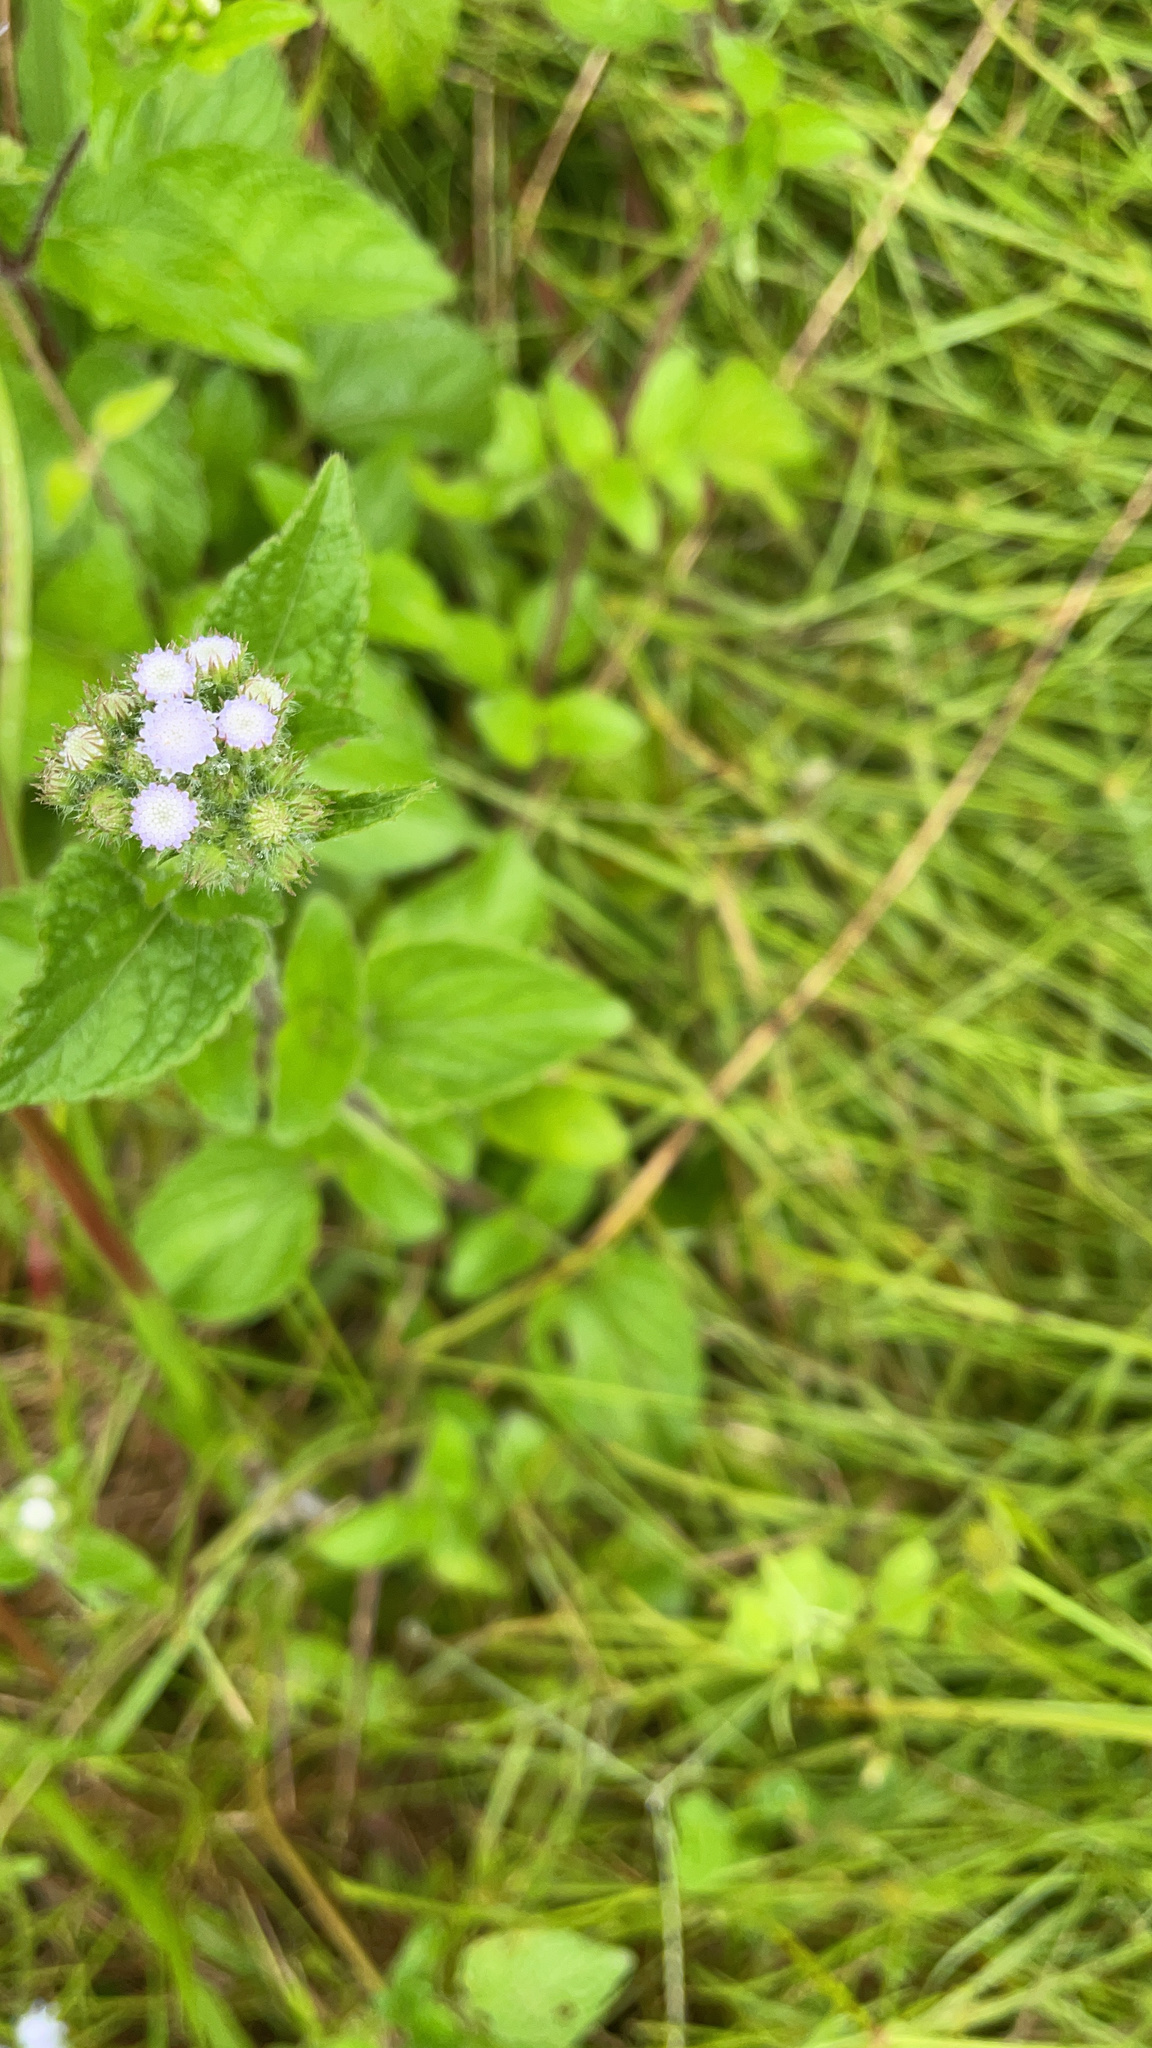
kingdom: Plantae
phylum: Tracheophyta
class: Magnoliopsida
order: Asterales
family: Asteraceae
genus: Ageratum
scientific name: Ageratum houstonianum
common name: Bluemink
